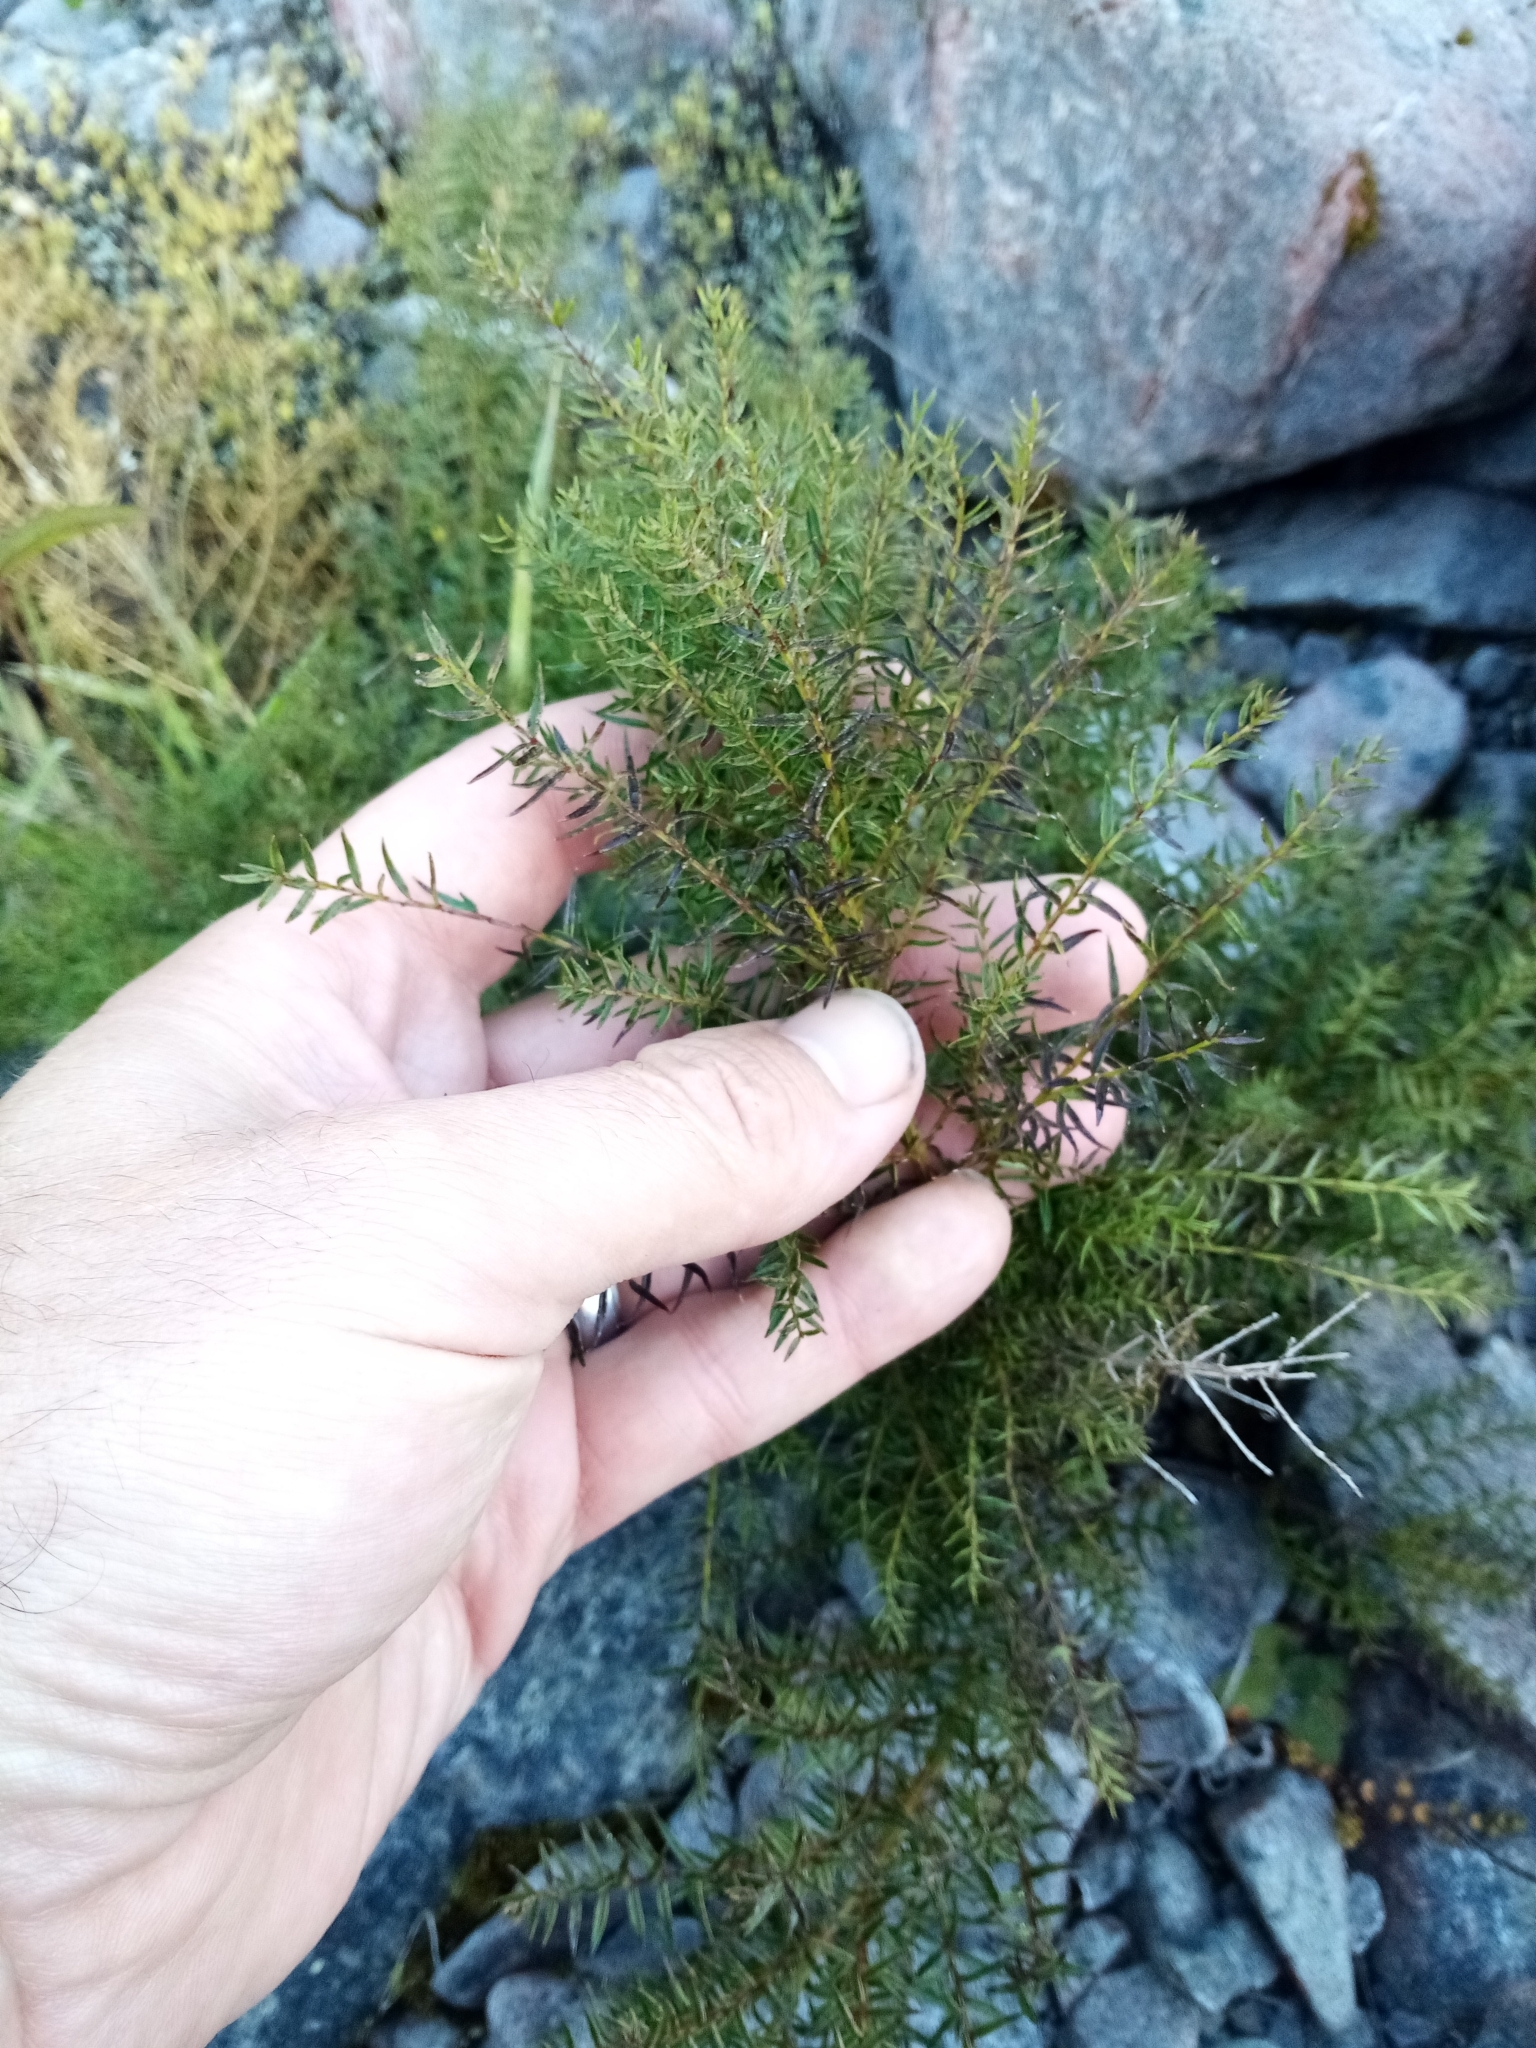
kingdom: Plantae
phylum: Tracheophyta
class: Magnoliopsida
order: Cucurbitales
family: Coriariaceae
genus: Coriaria
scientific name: Coriaria angustissima
